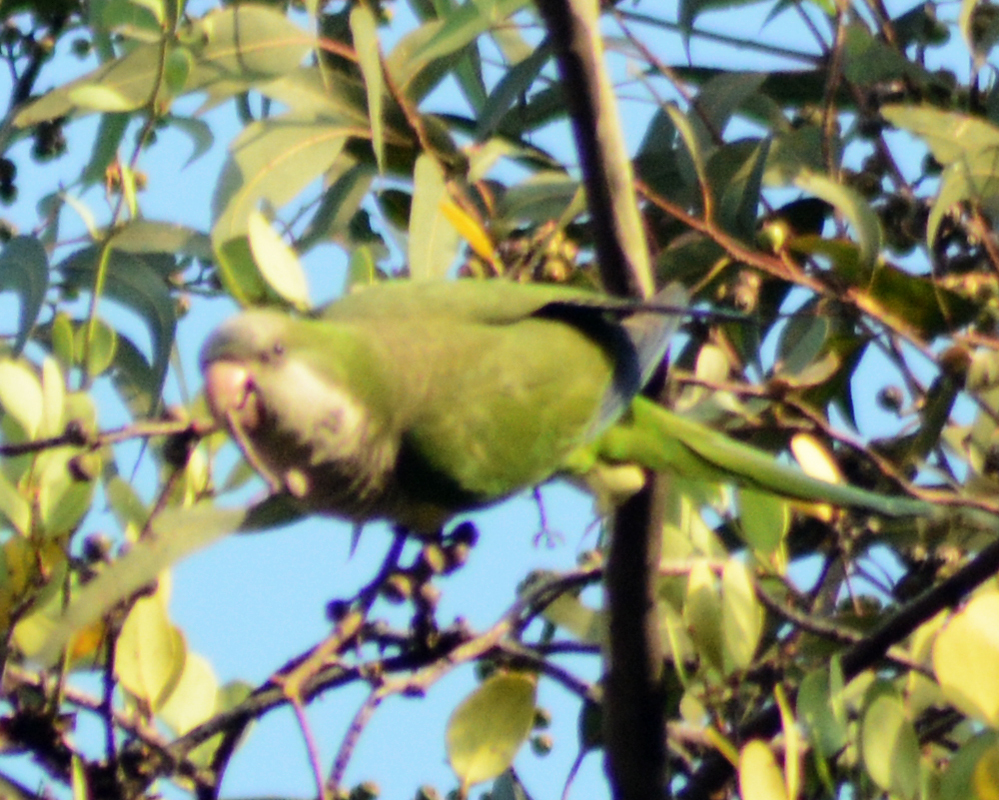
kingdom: Animalia
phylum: Chordata
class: Aves
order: Psittaciformes
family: Psittacidae
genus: Myiopsitta
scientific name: Myiopsitta monachus
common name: Monk parakeet
